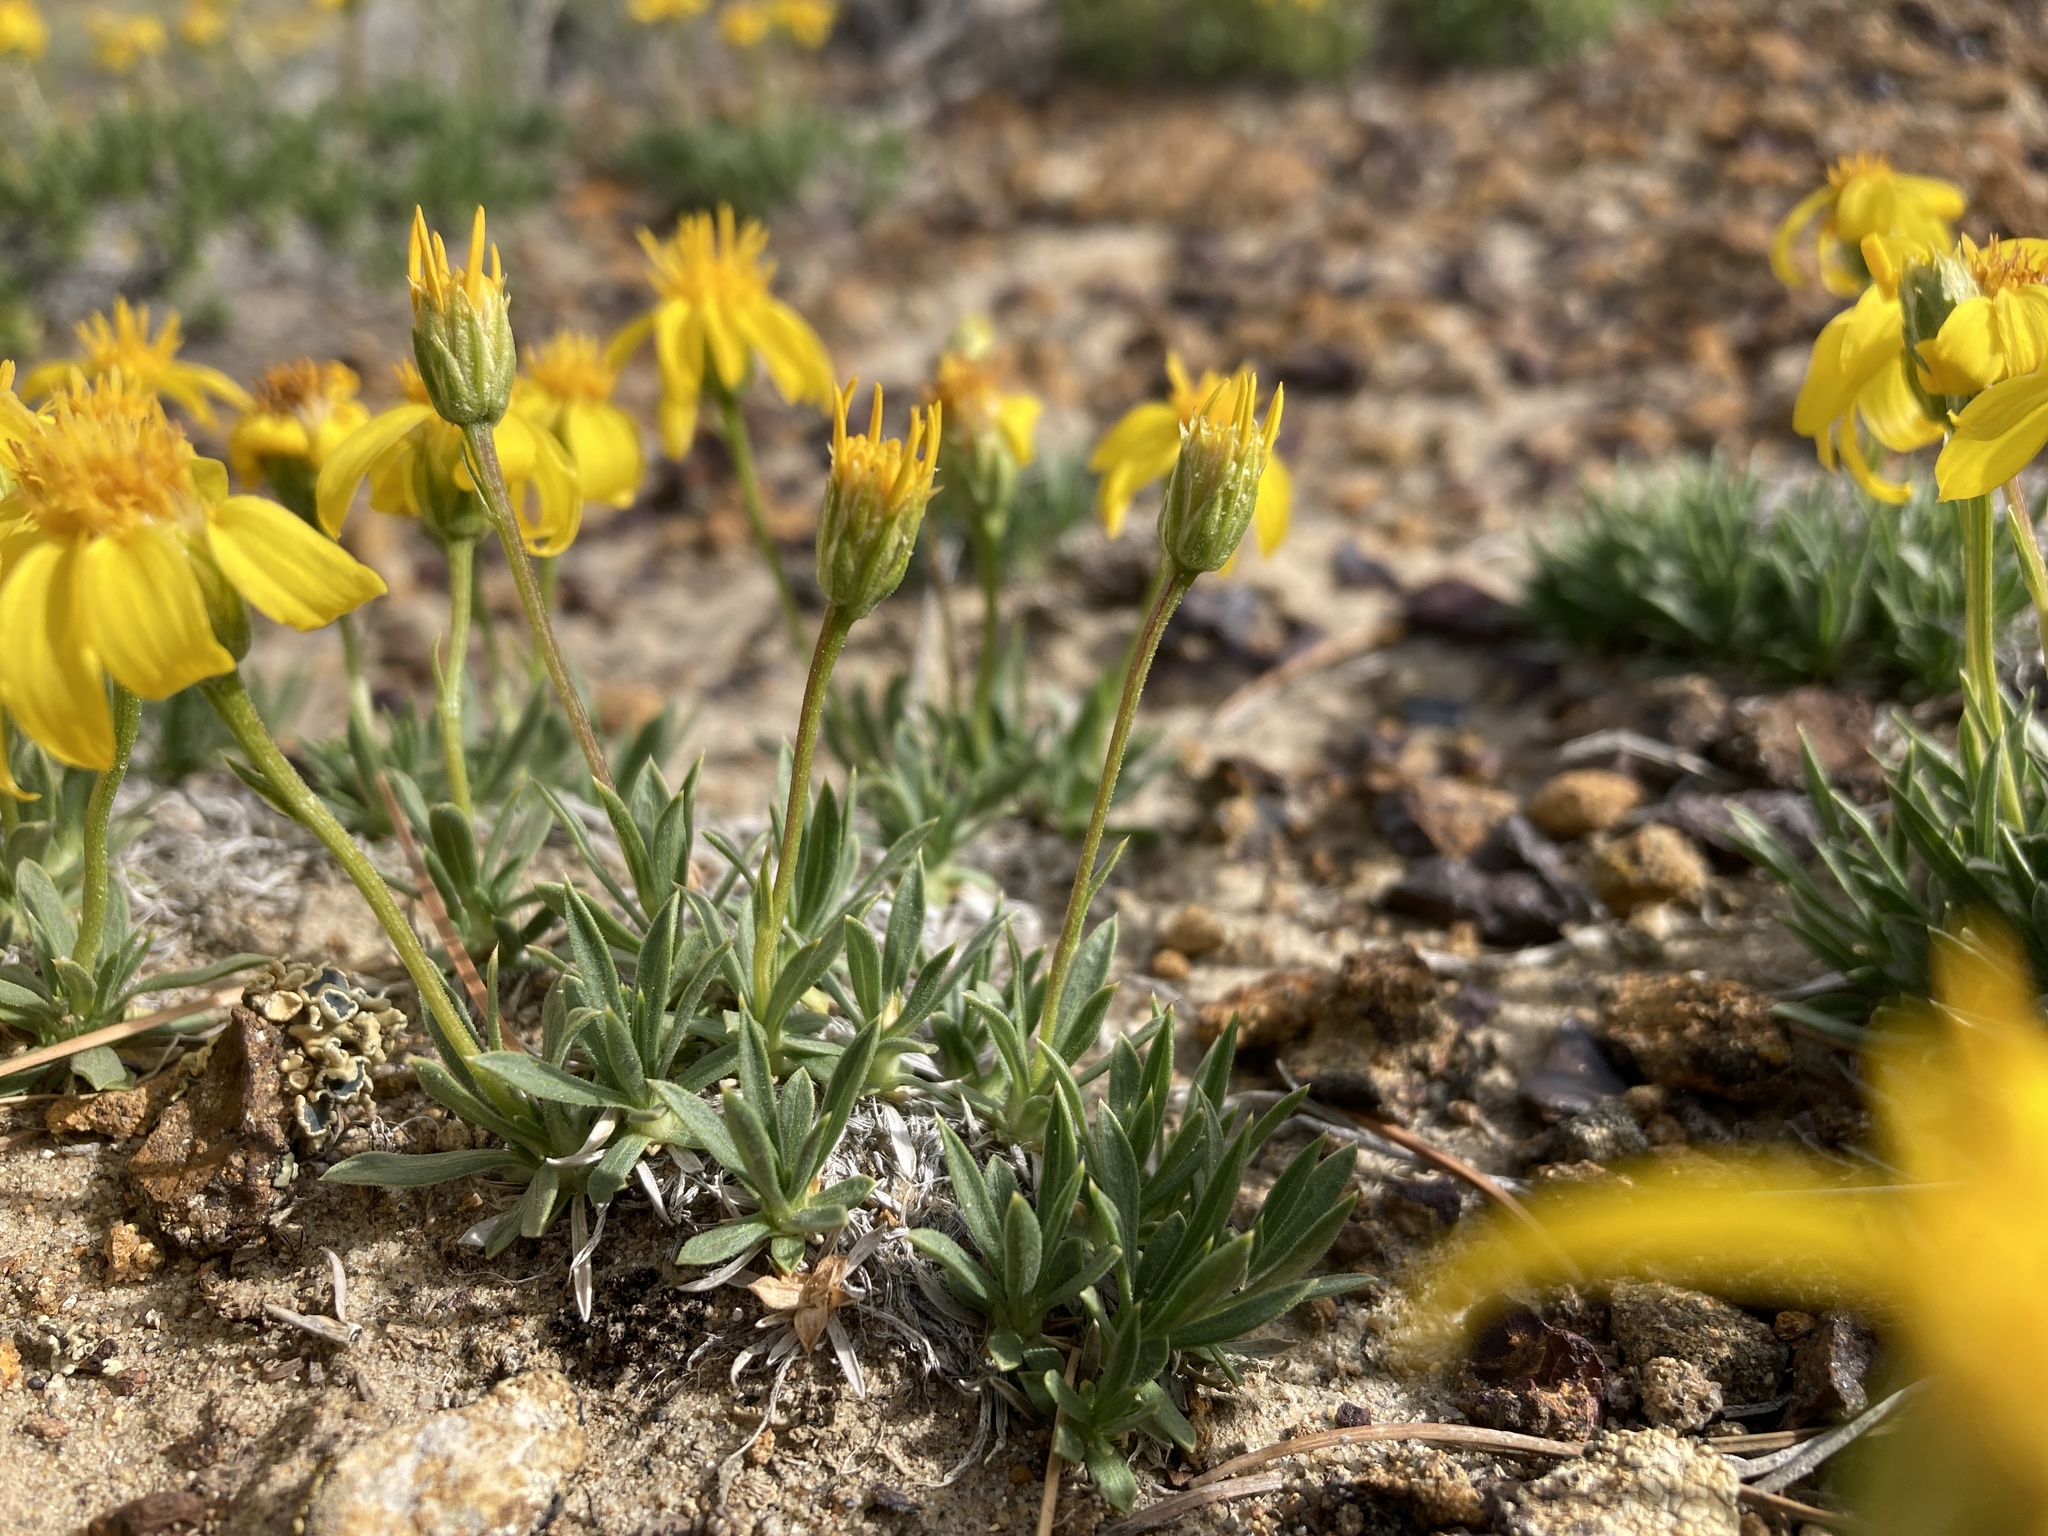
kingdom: Plantae
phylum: Tracheophyta
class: Magnoliopsida
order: Asterales
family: Asteraceae
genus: Stenotus
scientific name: Stenotus acaulis
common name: Stemless goldenweed
